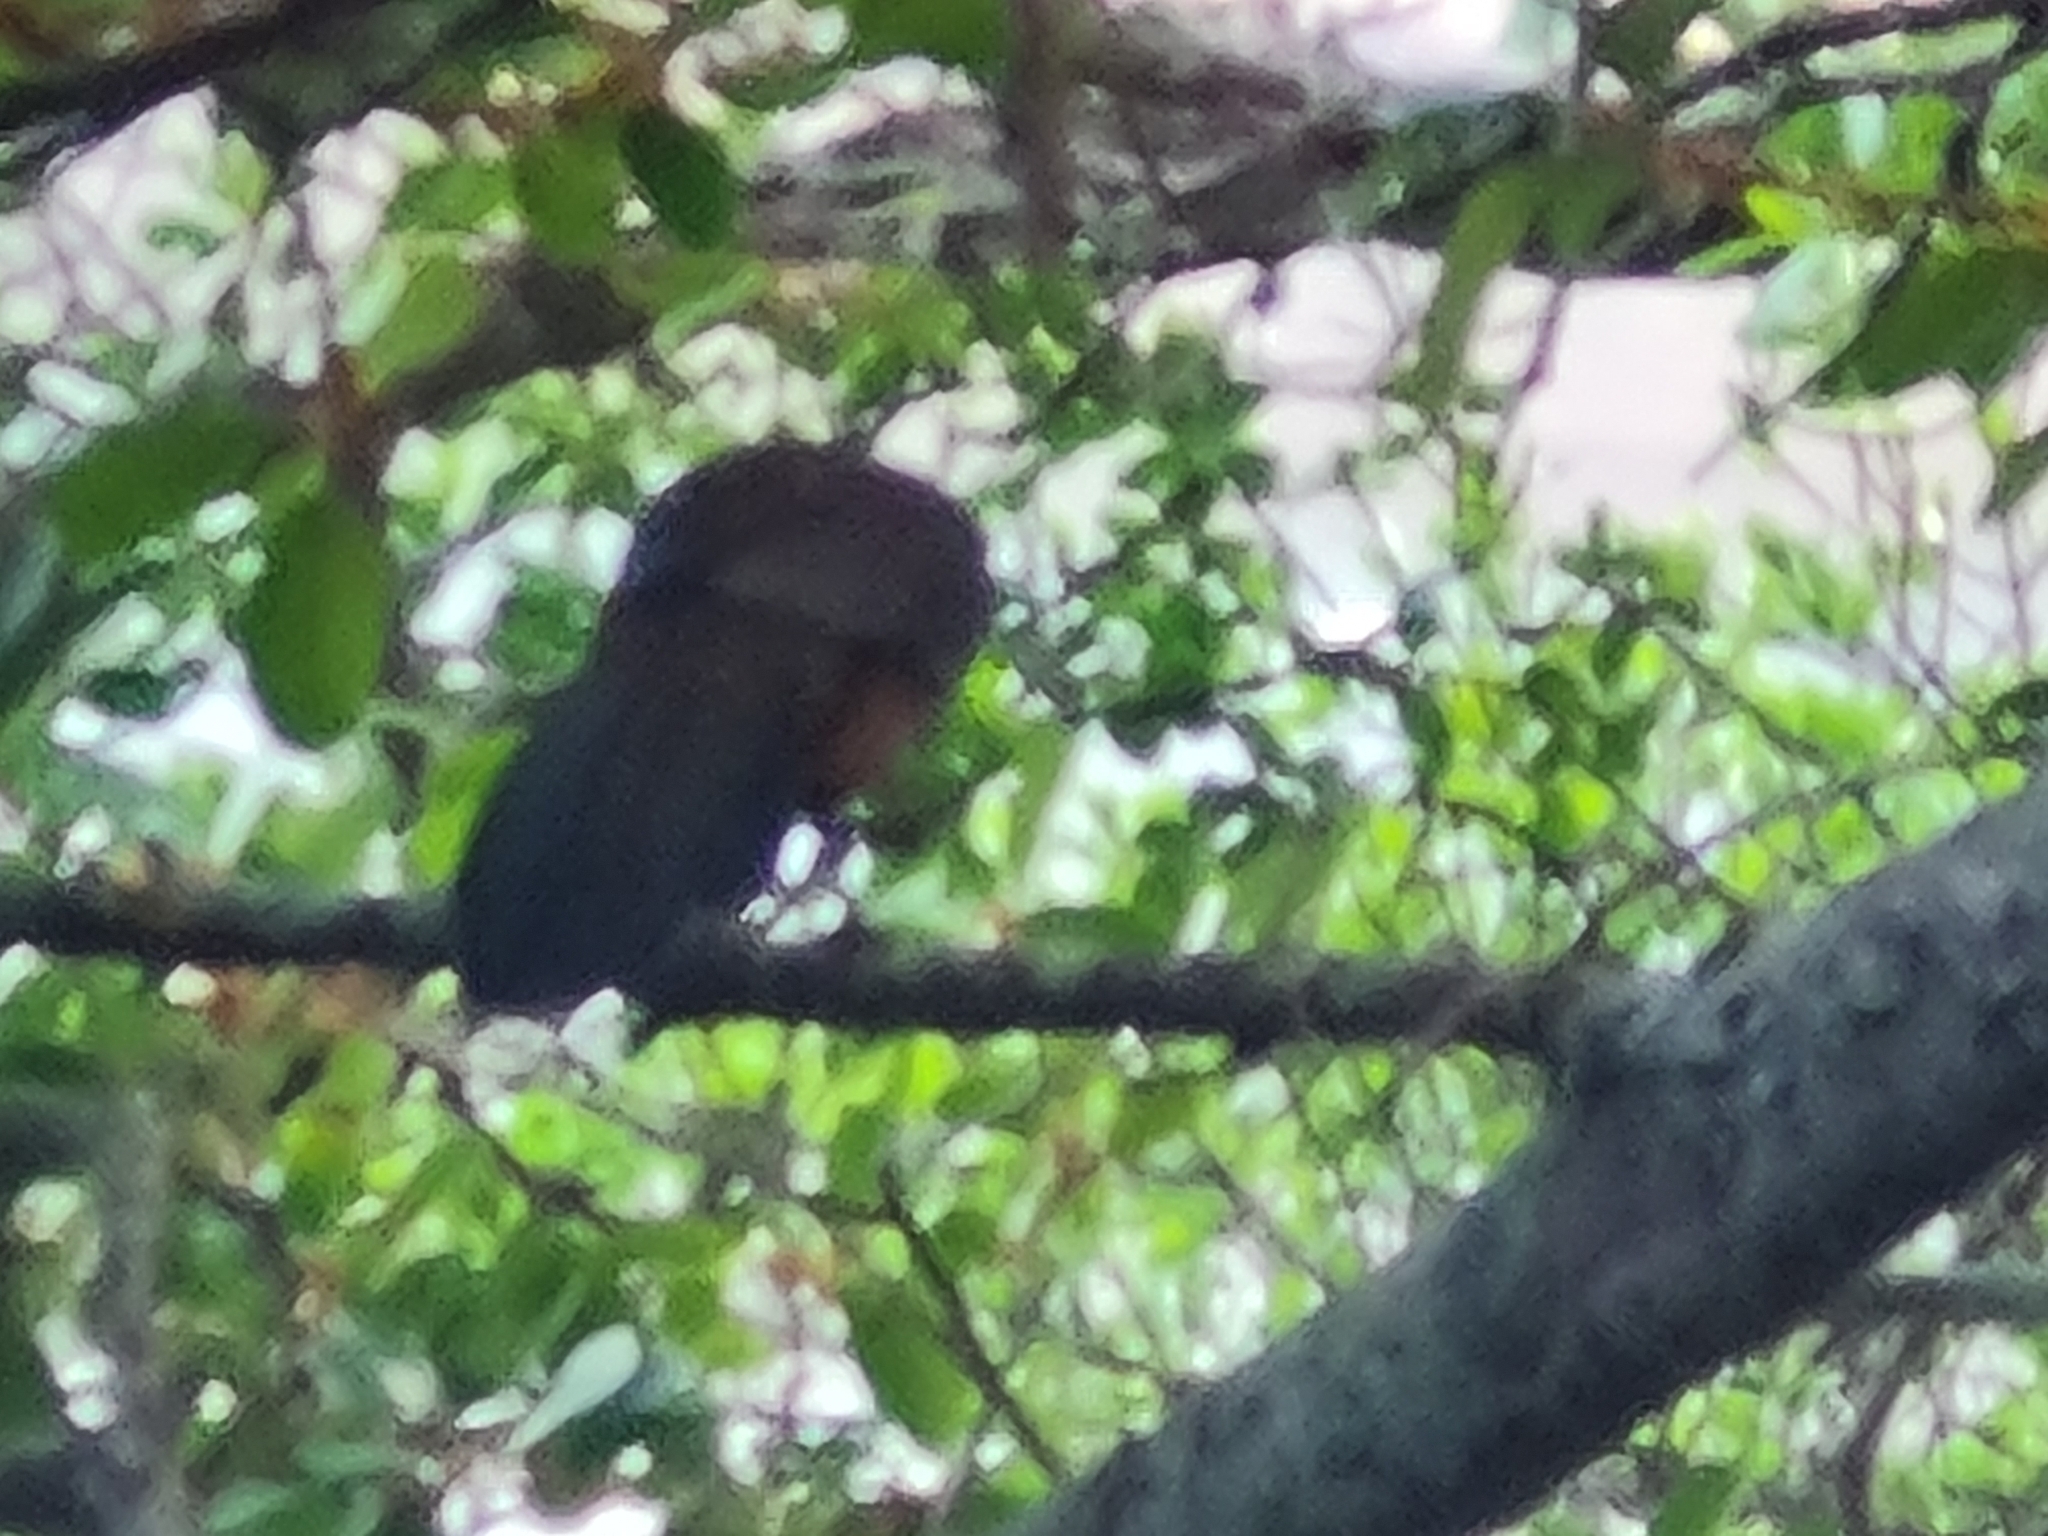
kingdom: Animalia
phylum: Chordata
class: Aves
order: Galliformes
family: Cracidae
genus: Penelope
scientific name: Penelope superciliaris
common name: Rusty-margined guan
